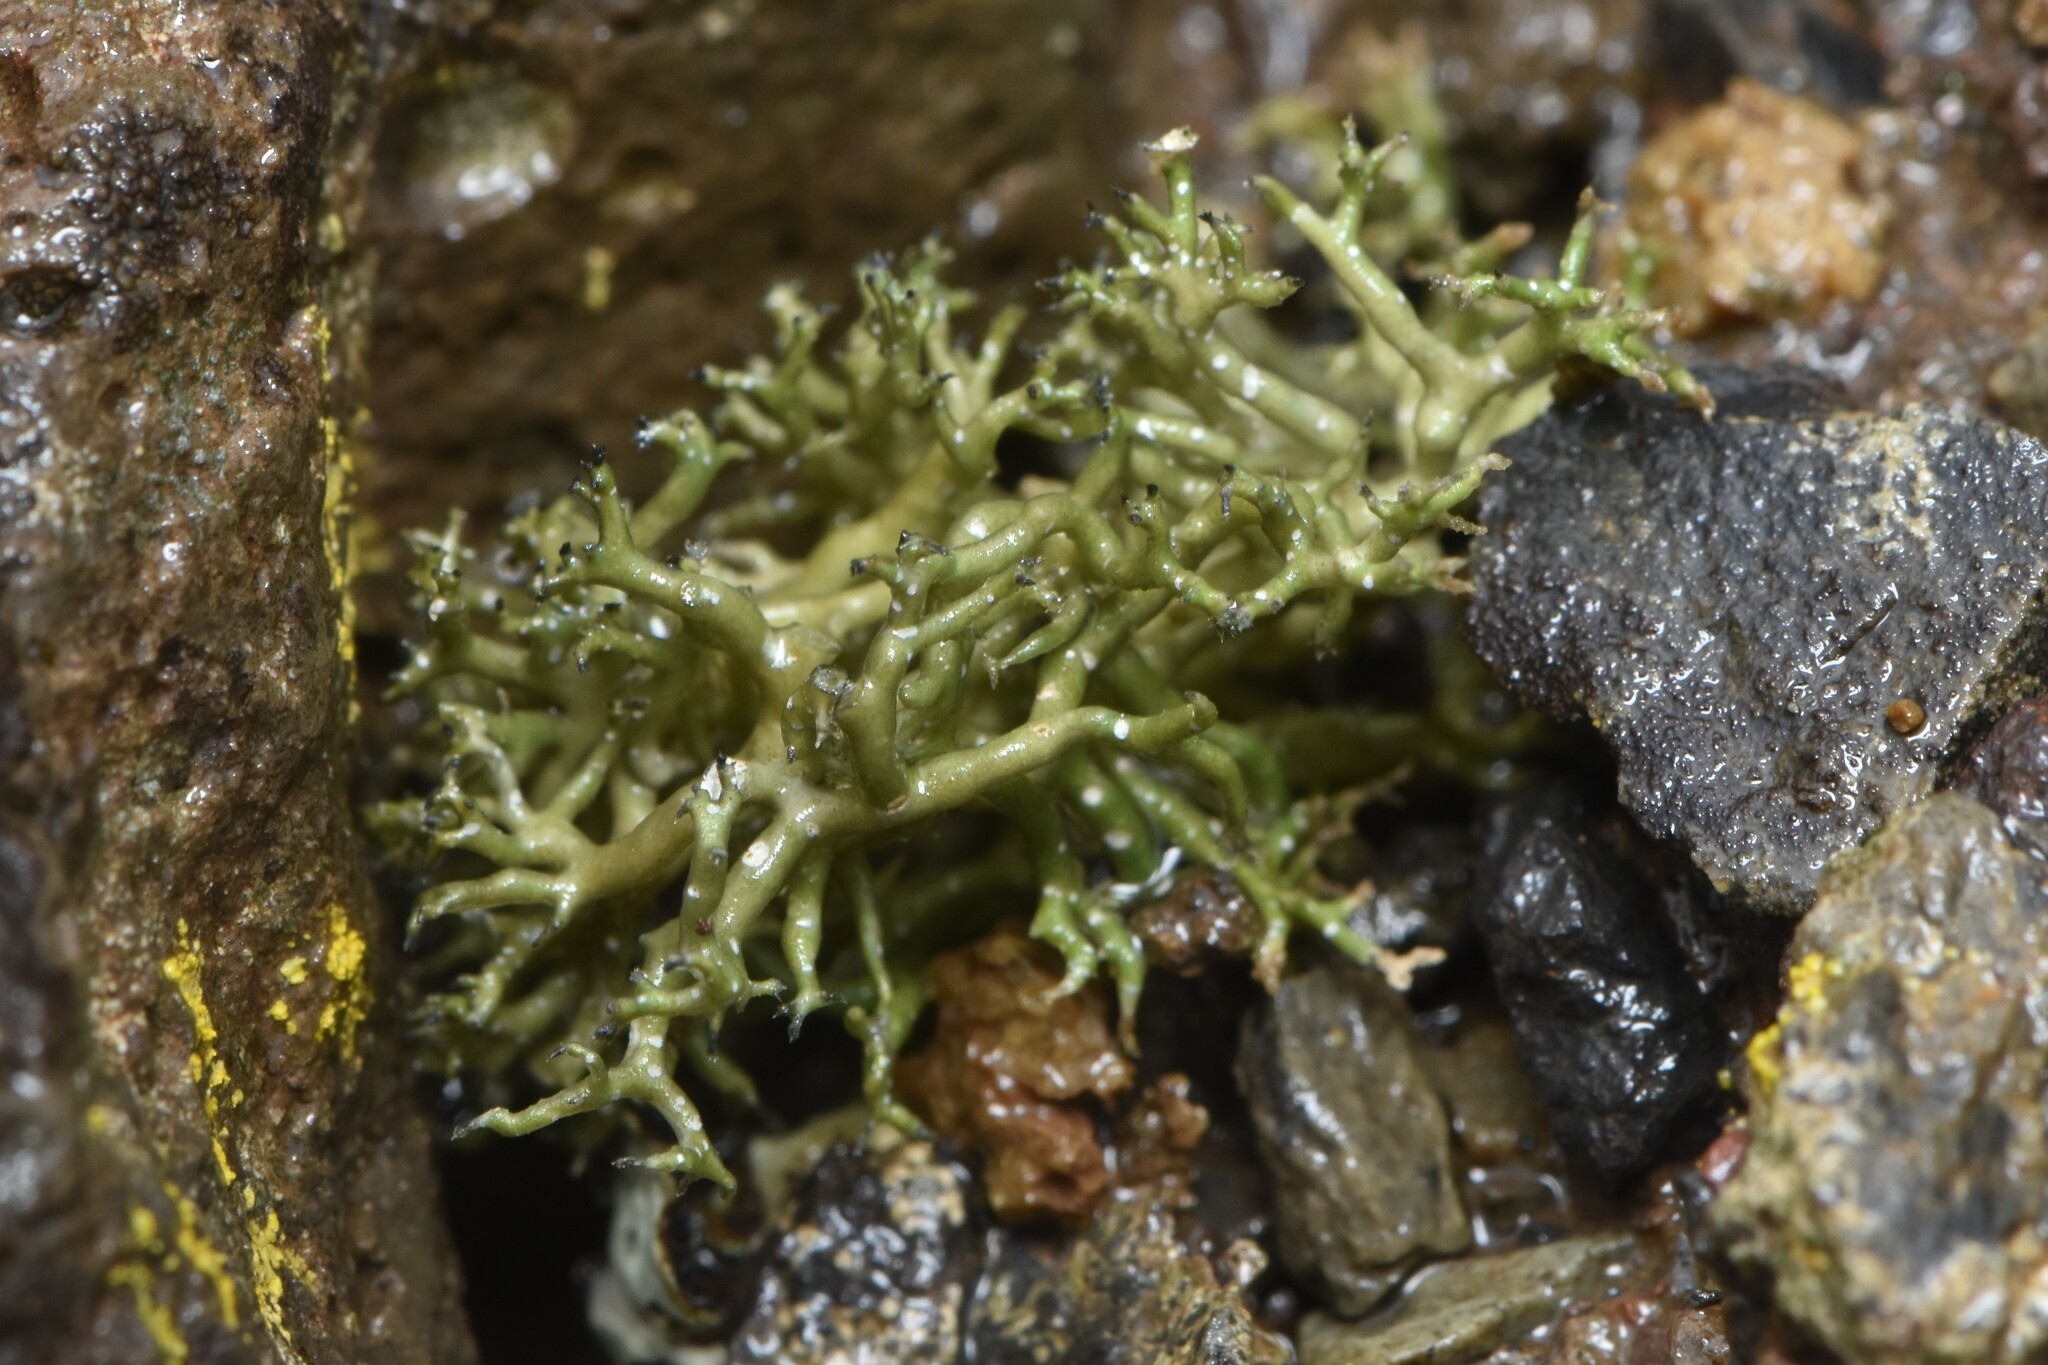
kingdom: Fungi
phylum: Ascomycota
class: Lecanoromycetes
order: Pertusariales
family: Megasporaceae
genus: Circinaria
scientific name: Circinaria hispida
